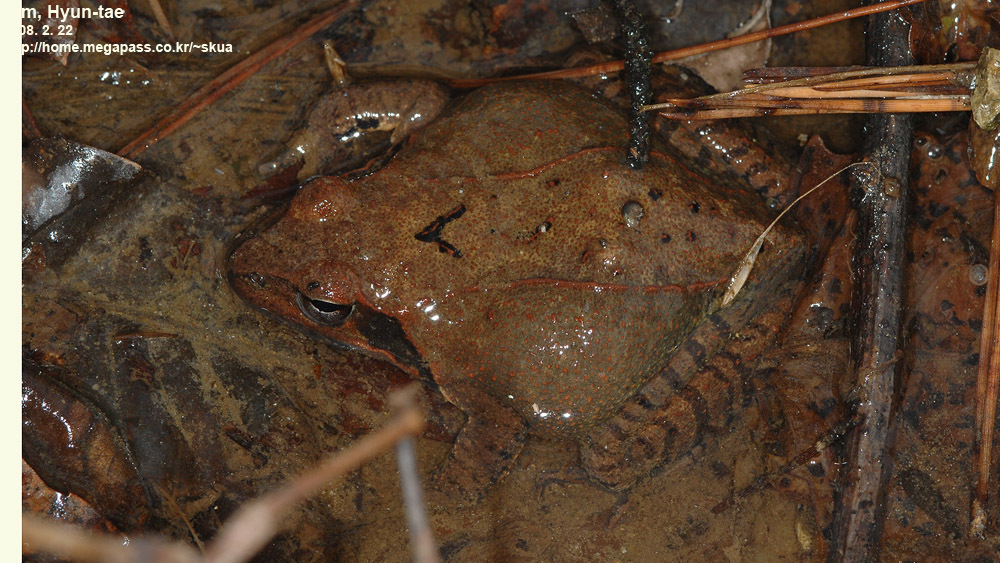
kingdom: Animalia
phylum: Chordata
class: Amphibia
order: Anura
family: Ranidae
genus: Rana
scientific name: Rana uenoi
